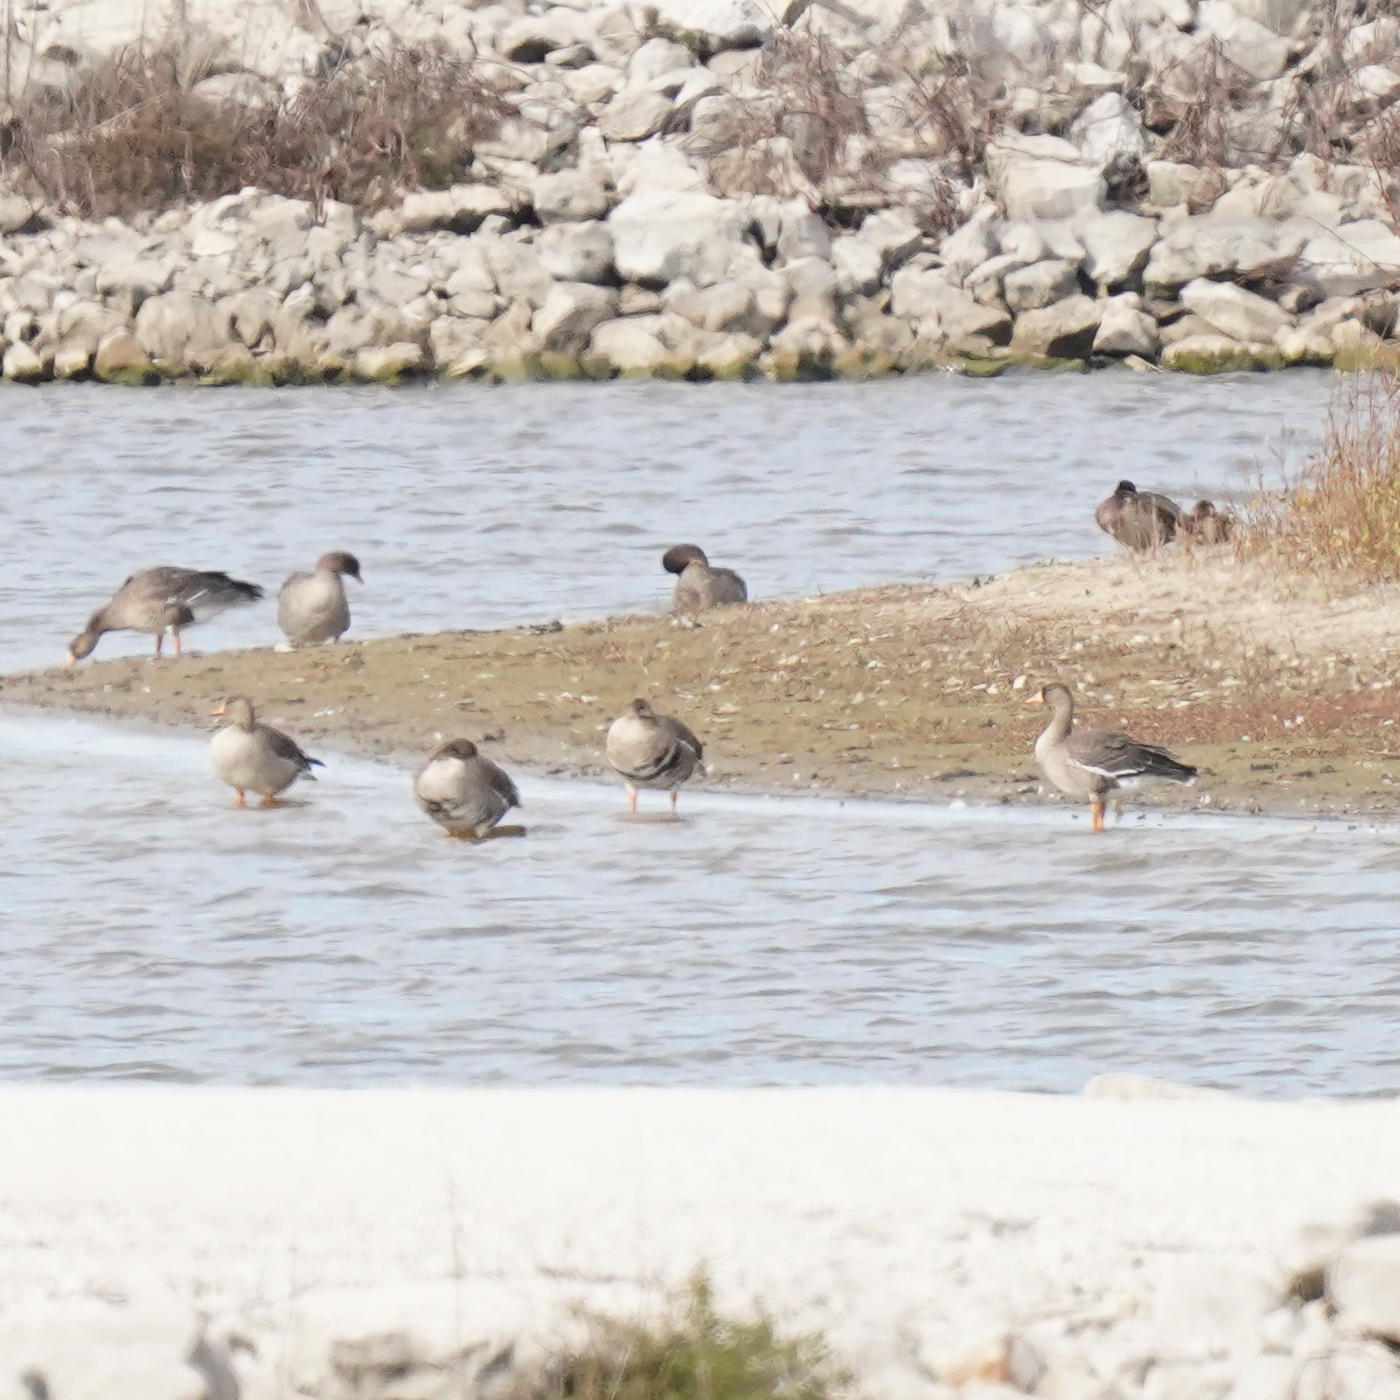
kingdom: Animalia
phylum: Chordata
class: Aves
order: Anseriformes
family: Anatidae
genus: Anser
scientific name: Anser albifrons
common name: Greater white-fronted goose
